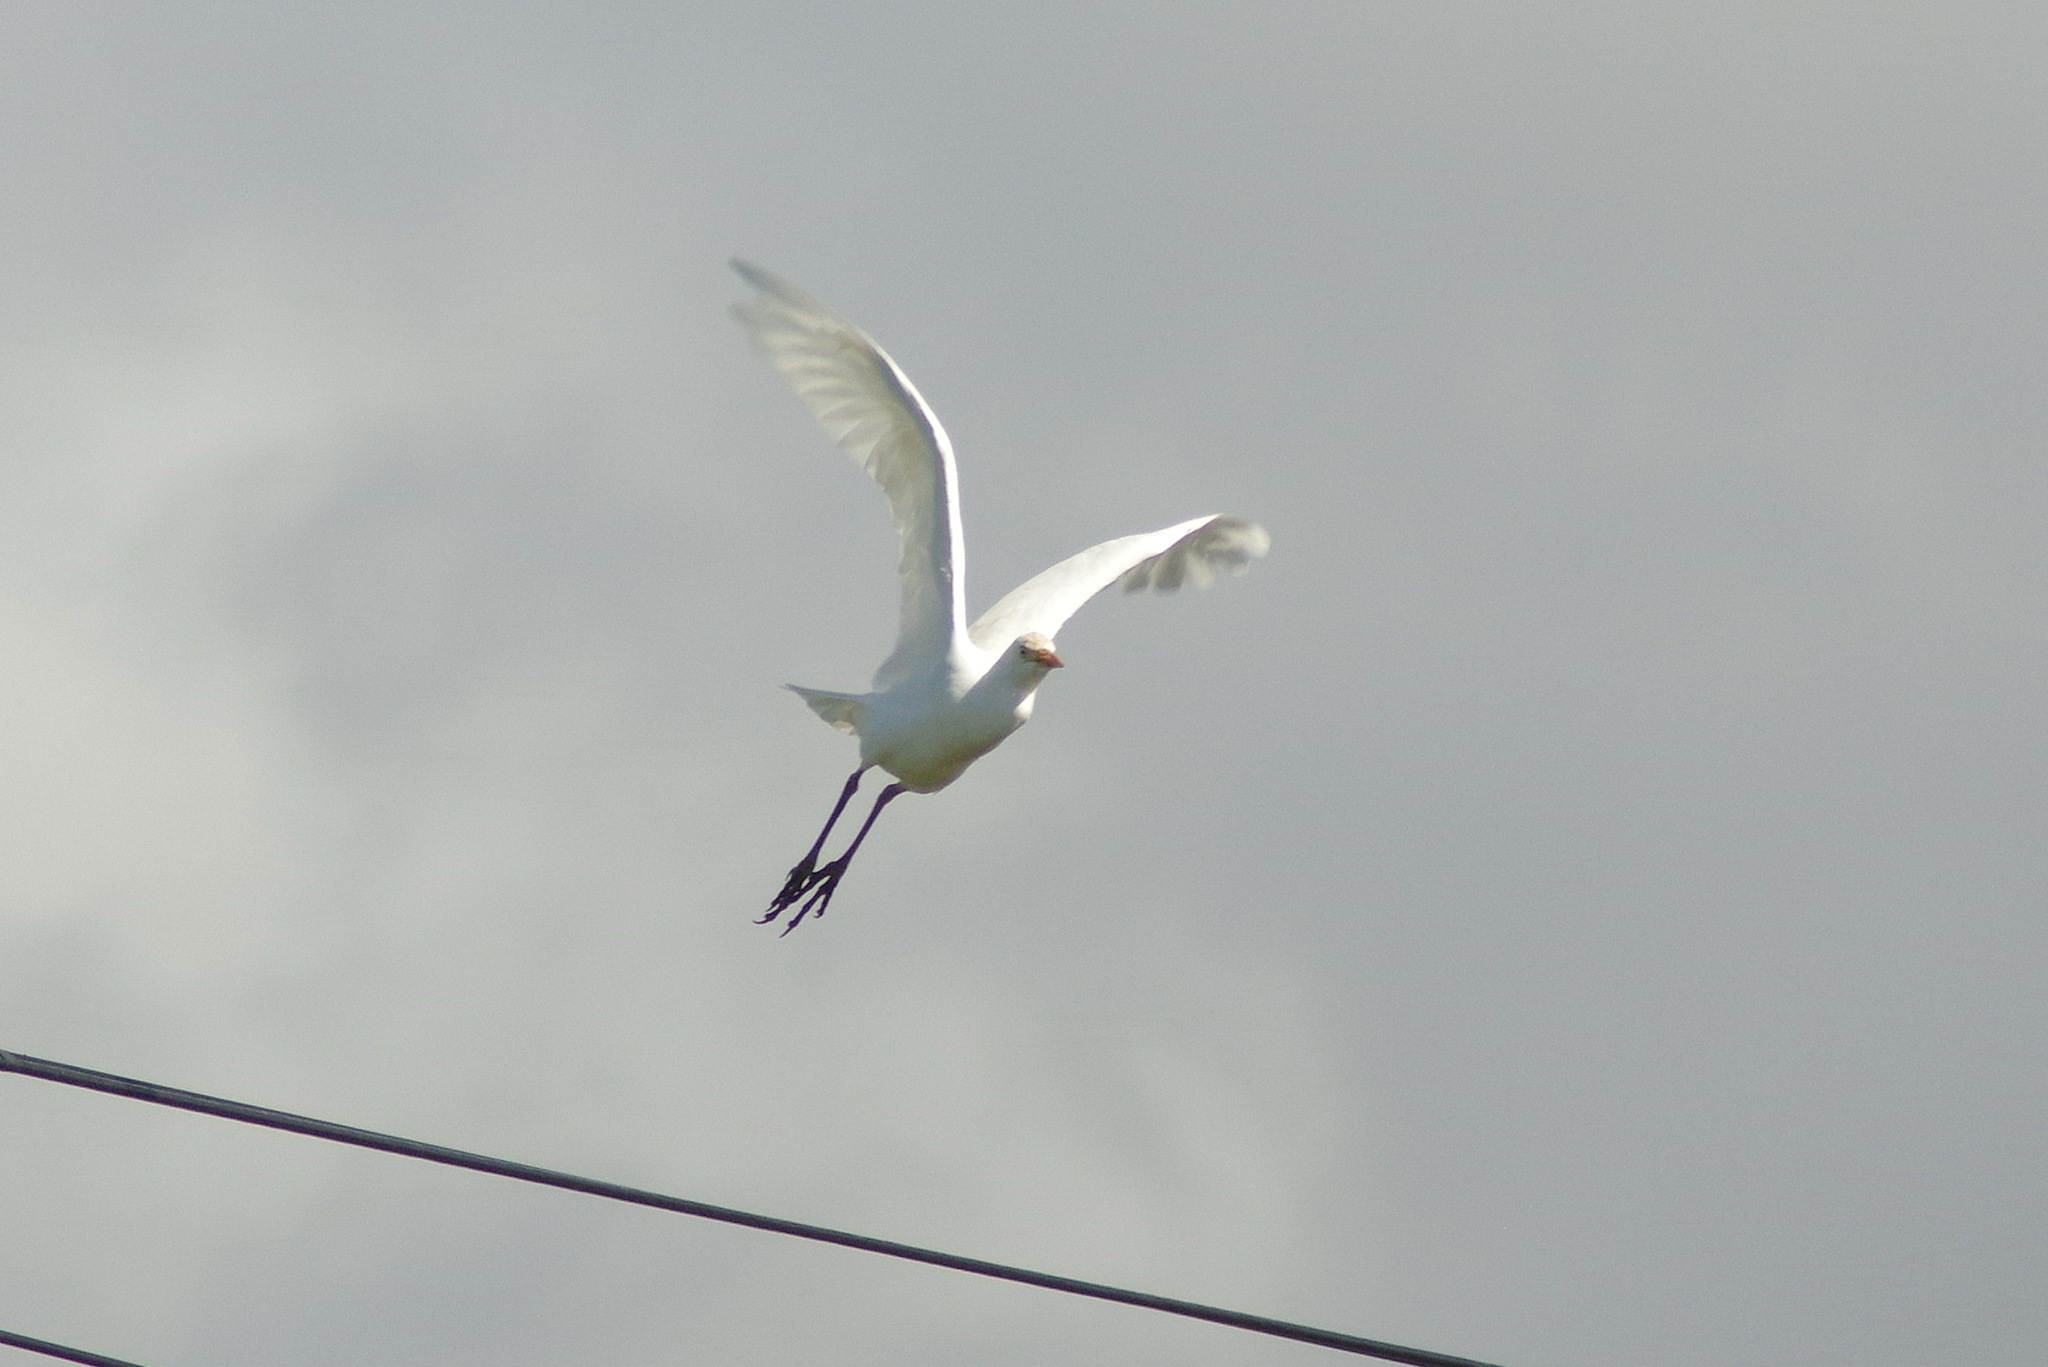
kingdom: Animalia
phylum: Chordata
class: Aves
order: Pelecaniformes
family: Ardeidae
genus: Bubulcus
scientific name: Bubulcus ibis
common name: Cattle egret
